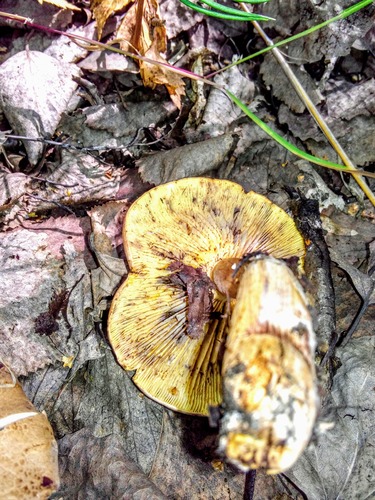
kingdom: Fungi
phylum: Basidiomycota
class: Agaricomycetes
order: Agaricales
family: Tricholomataceae
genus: Tricholomopsis
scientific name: Tricholomopsis rutilans
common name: Plums and custard
